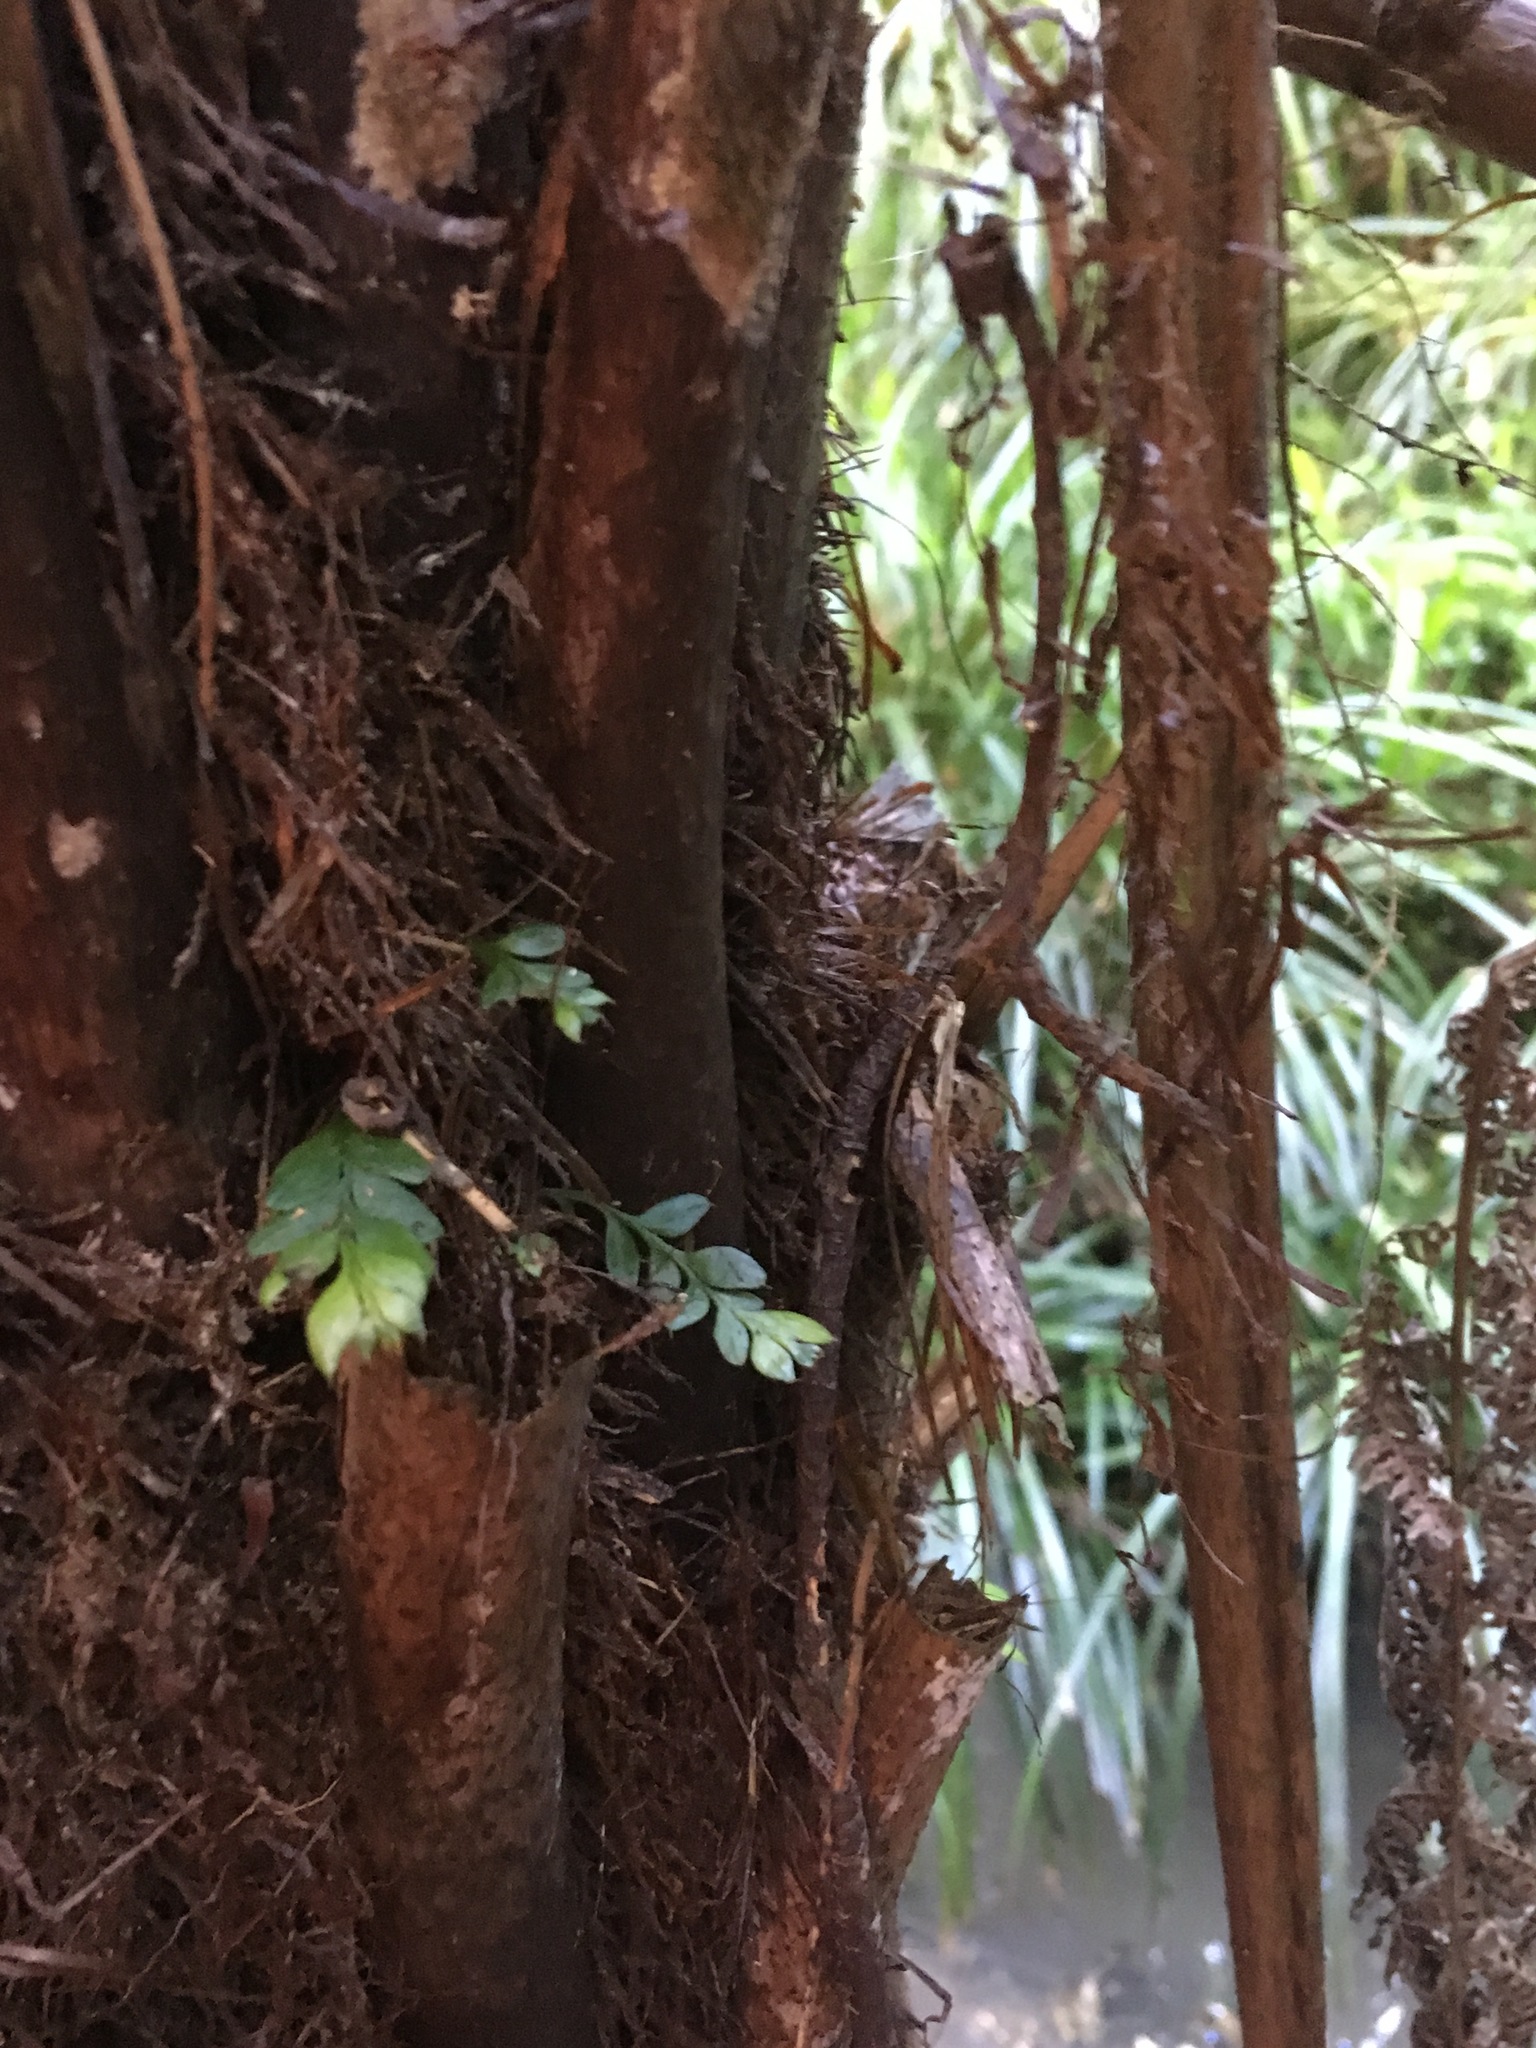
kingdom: Plantae
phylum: Tracheophyta
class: Polypodiopsida
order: Psilotales
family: Psilotaceae
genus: Tmesipteris
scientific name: Tmesipteris lanceolata
